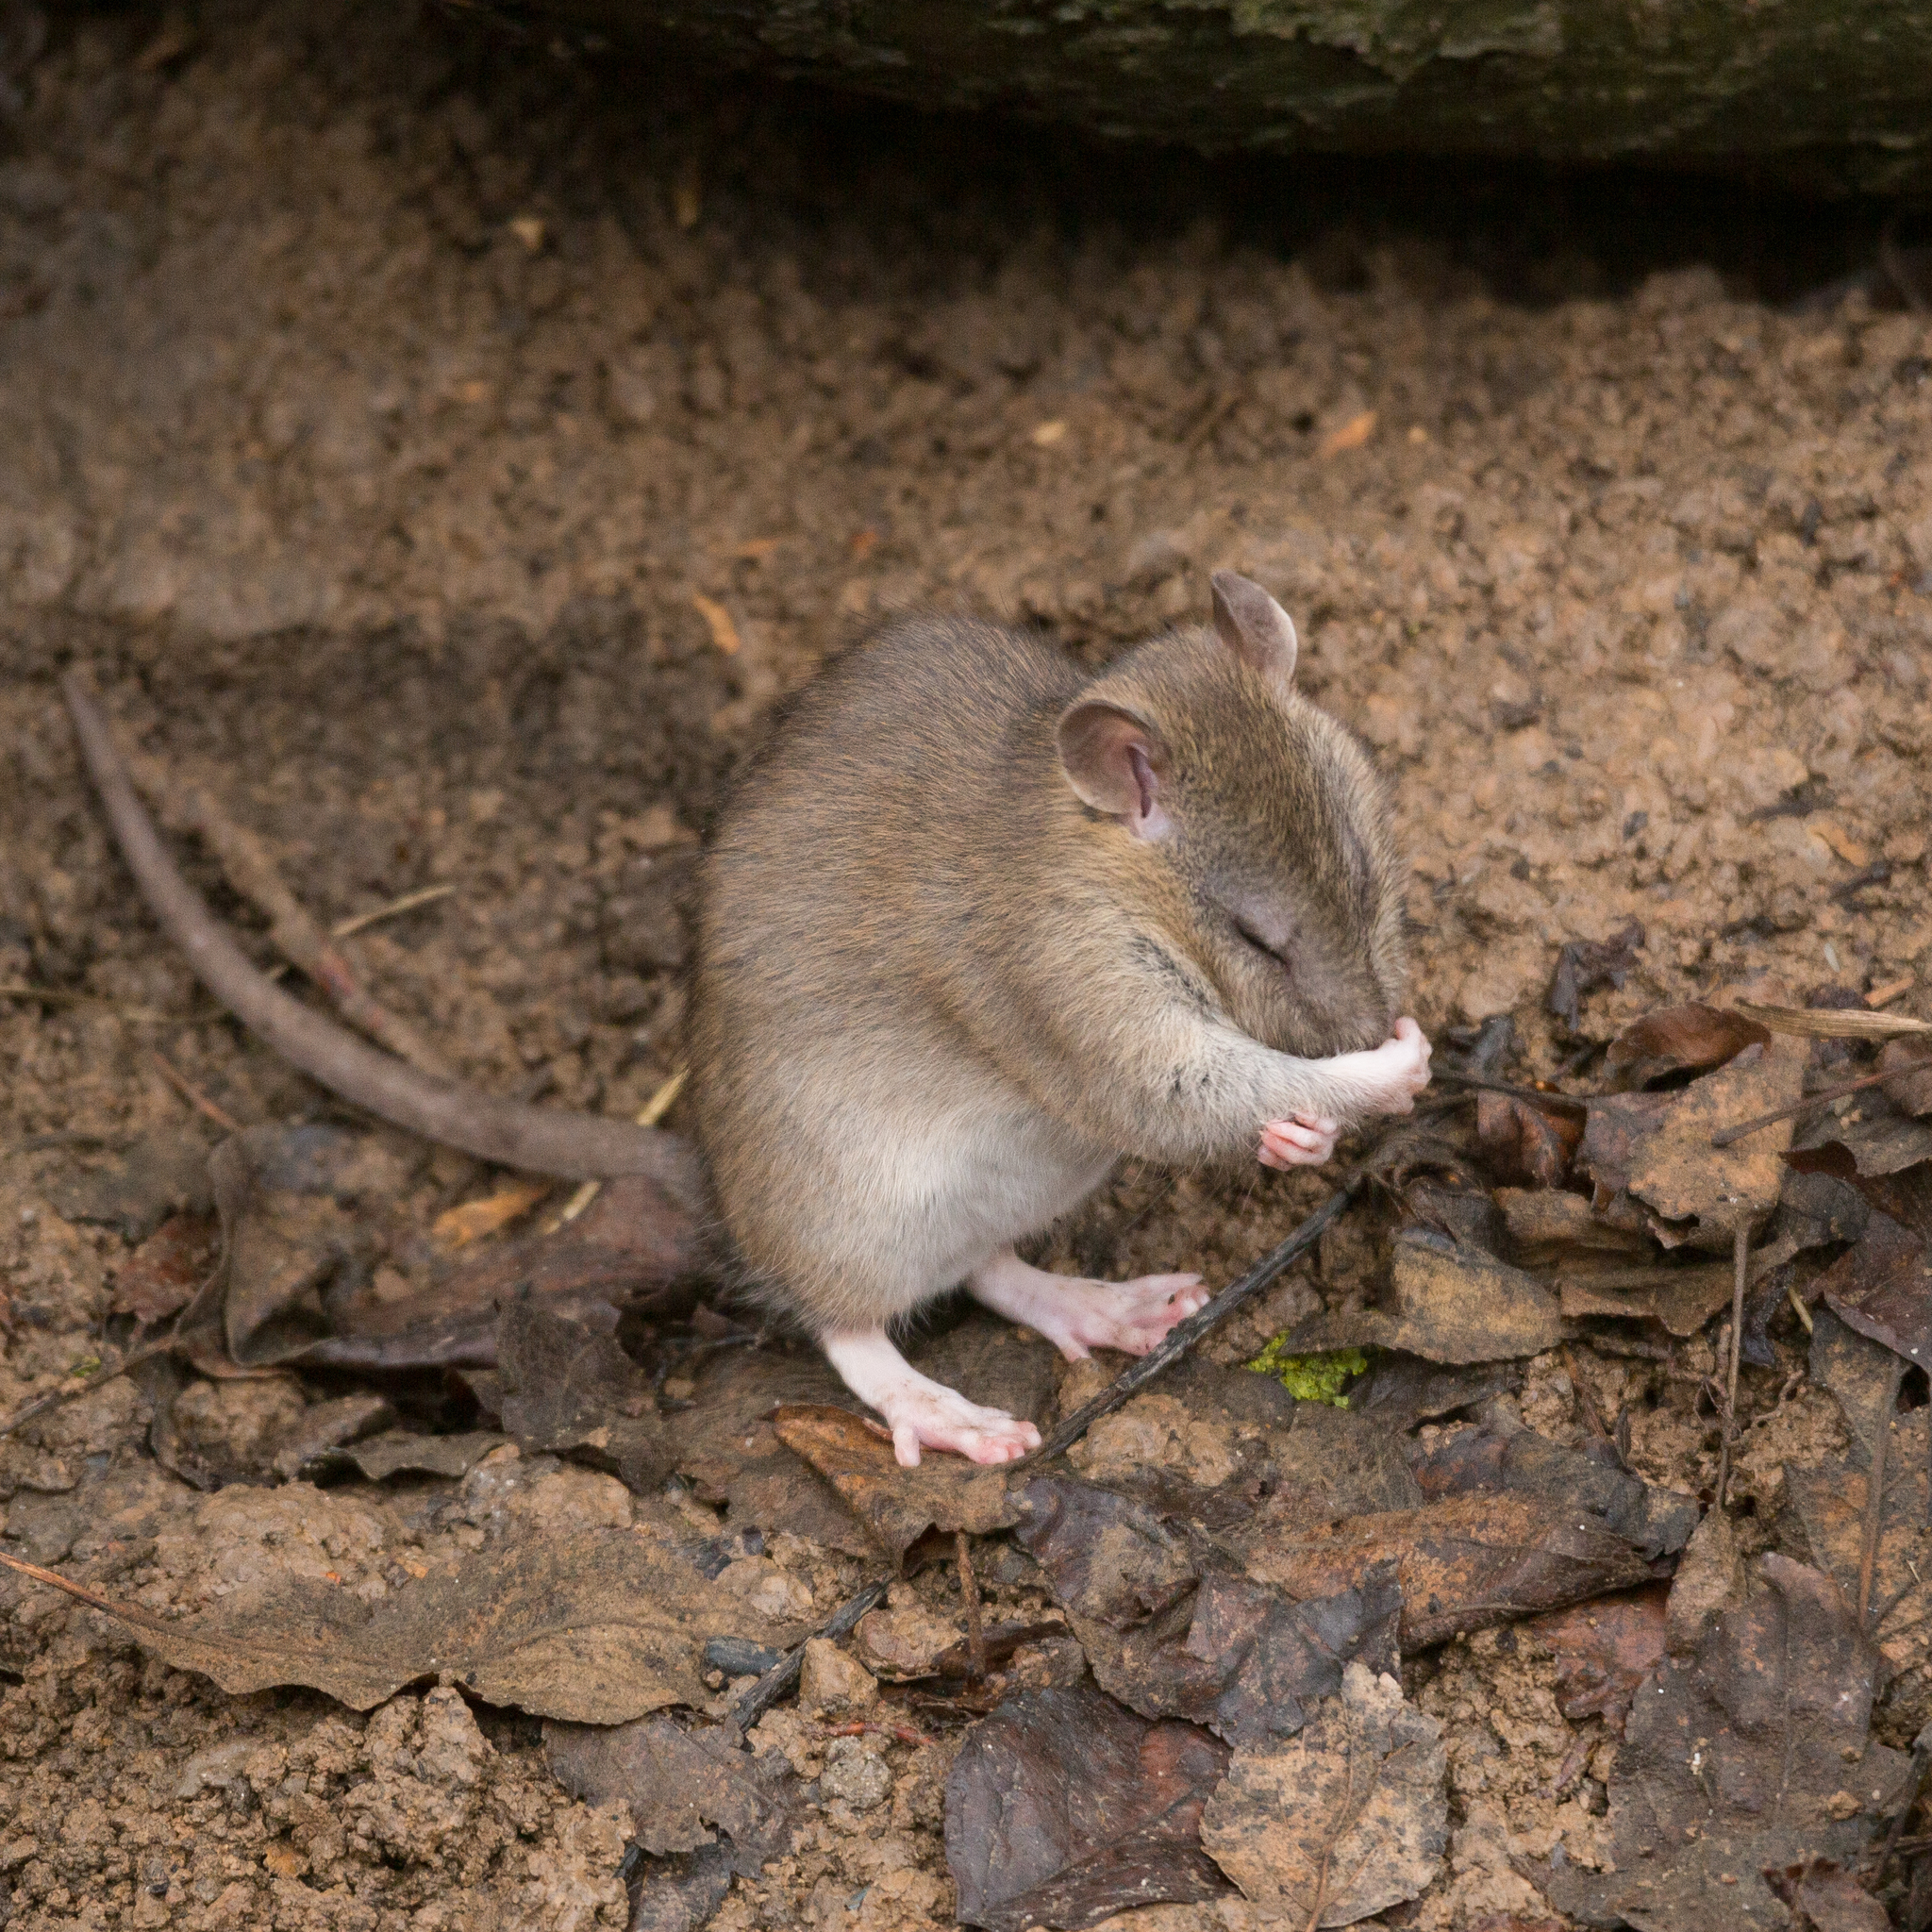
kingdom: Animalia
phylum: Chordata
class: Mammalia
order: Rodentia
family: Muridae
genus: Rattus
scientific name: Rattus norvegicus
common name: Brown rat
